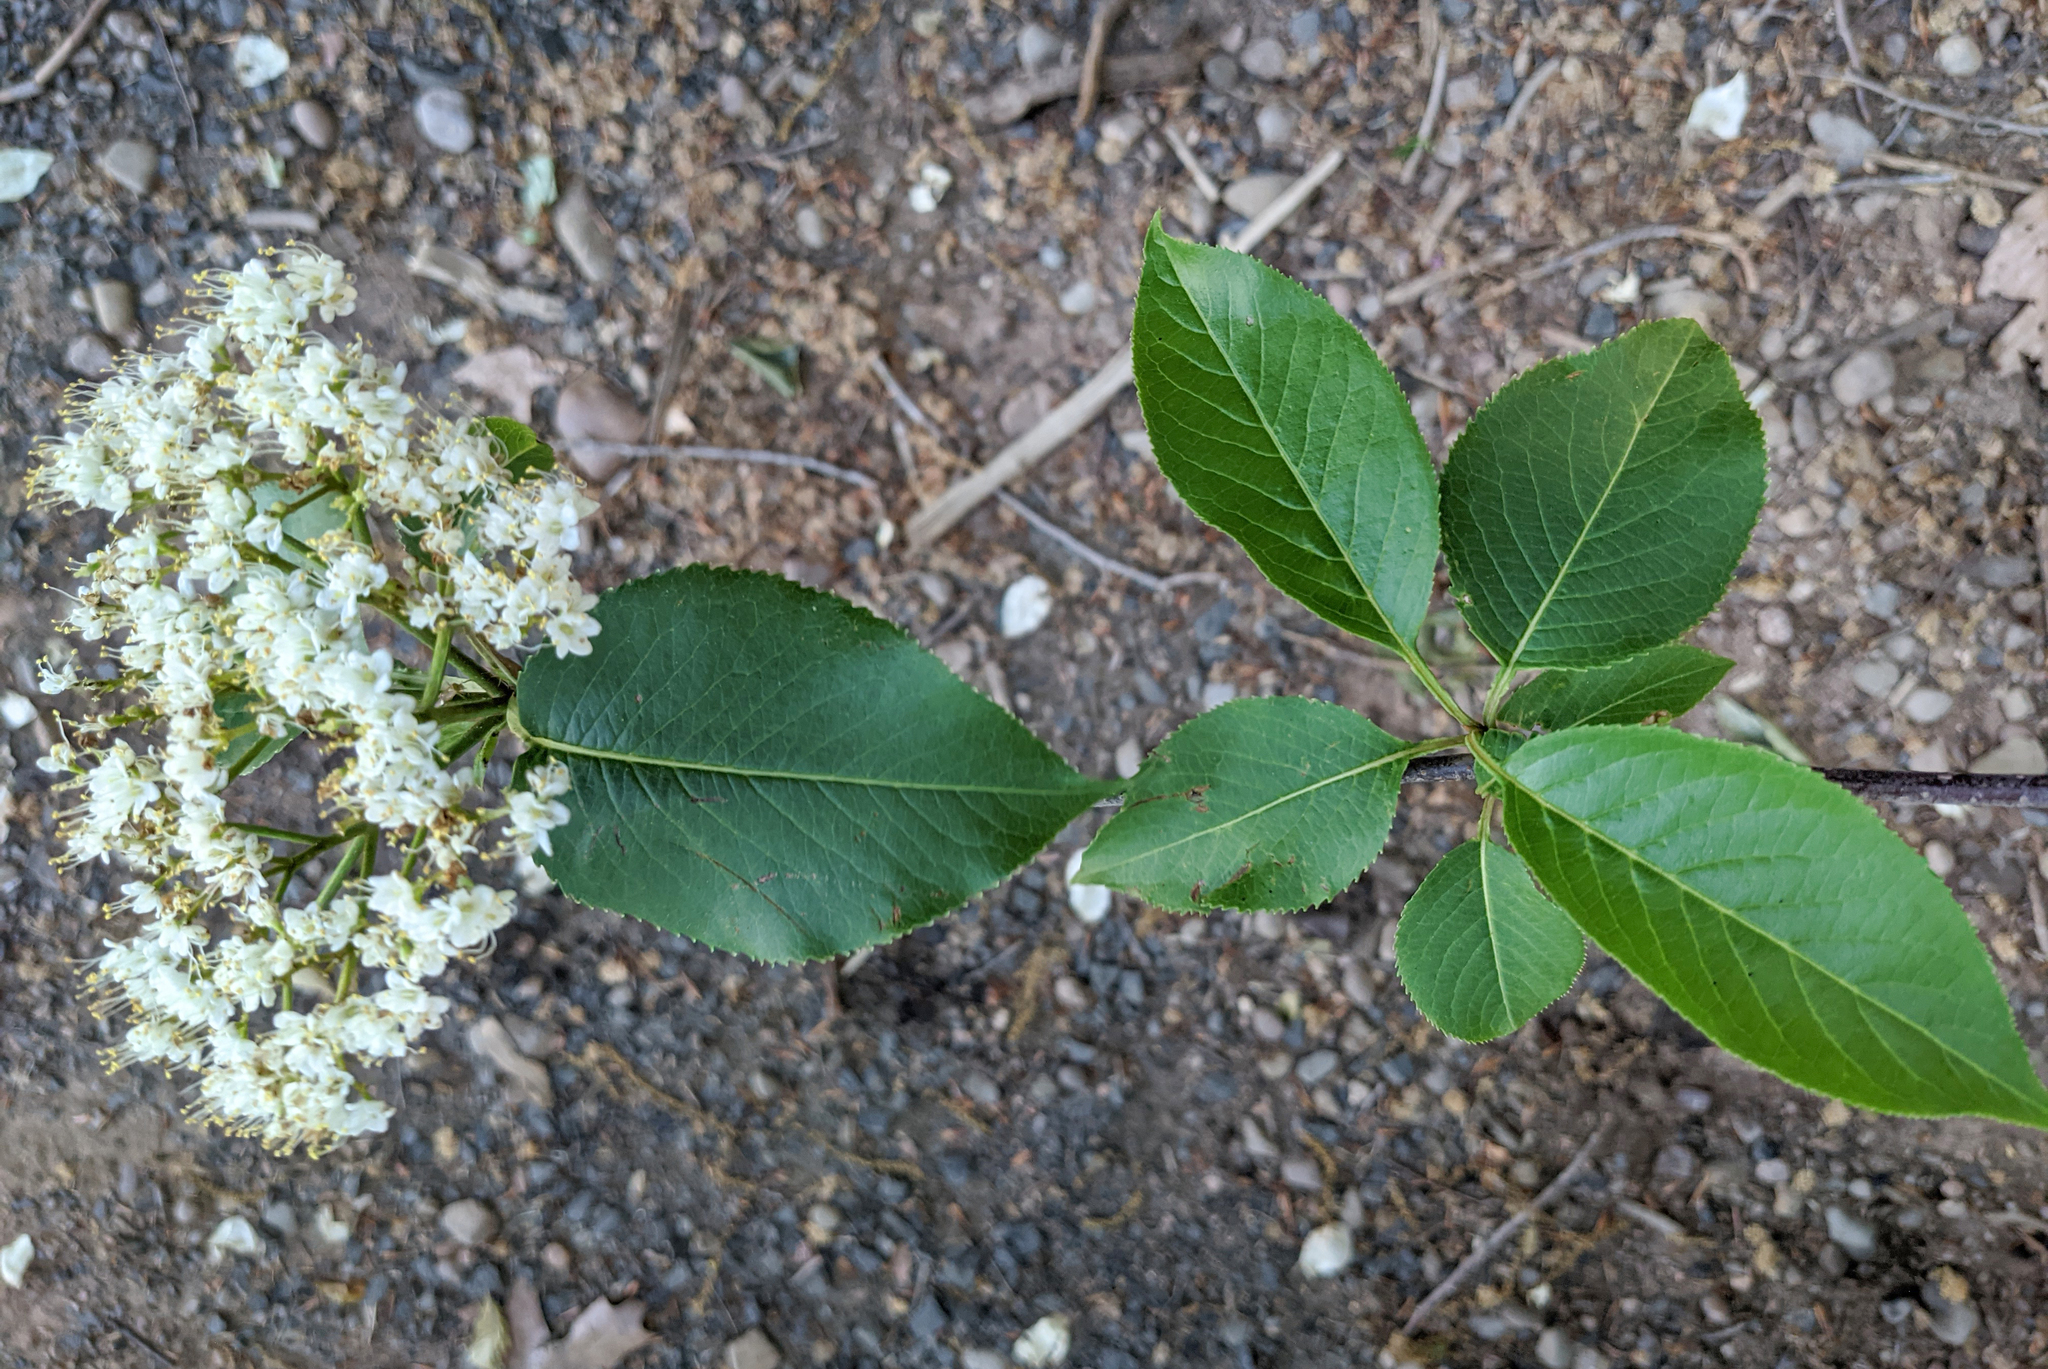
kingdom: Plantae
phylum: Tracheophyta
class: Magnoliopsida
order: Dipsacales
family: Viburnaceae
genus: Viburnum
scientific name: Viburnum lentago
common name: Black haw
